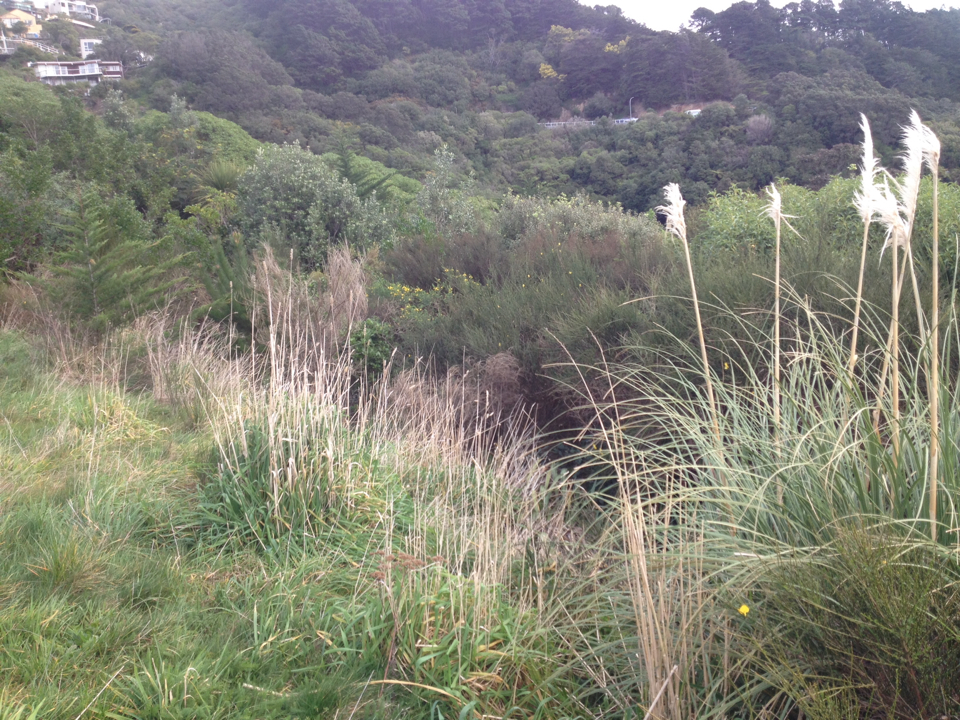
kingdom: Plantae
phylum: Tracheophyta
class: Liliopsida
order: Poales
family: Poaceae
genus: Cortaderia
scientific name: Cortaderia selloana
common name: Uruguayan pampas grass
